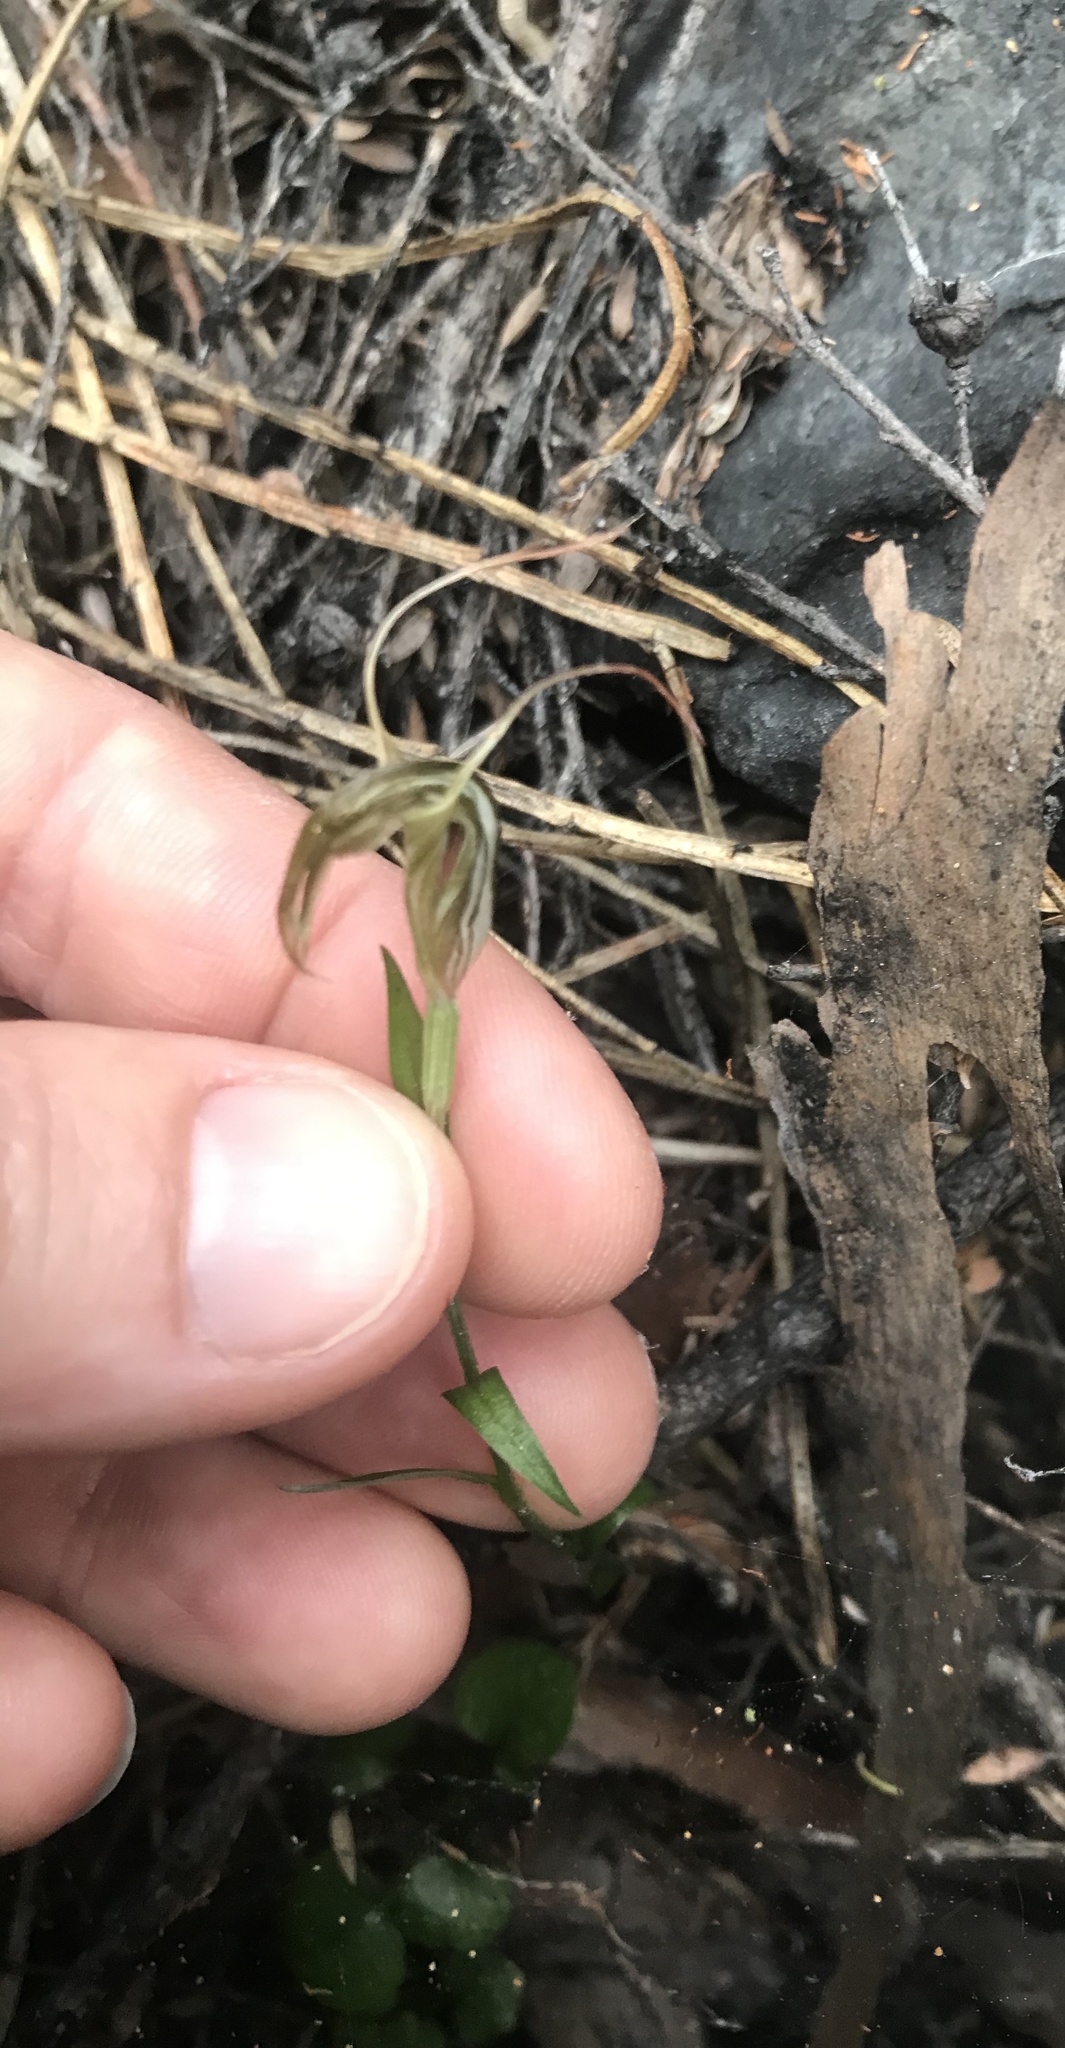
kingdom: Plantae
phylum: Tracheophyta
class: Liliopsida
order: Asparagales
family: Orchidaceae
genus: Pterostylis
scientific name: Pterostylis alobula
